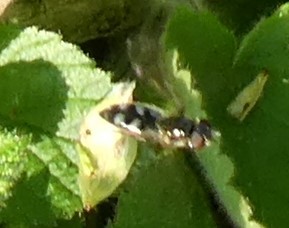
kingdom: Animalia
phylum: Arthropoda
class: Insecta
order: Diptera
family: Syrphidae
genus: Platycheirus
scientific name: Platycheirus albimanus
